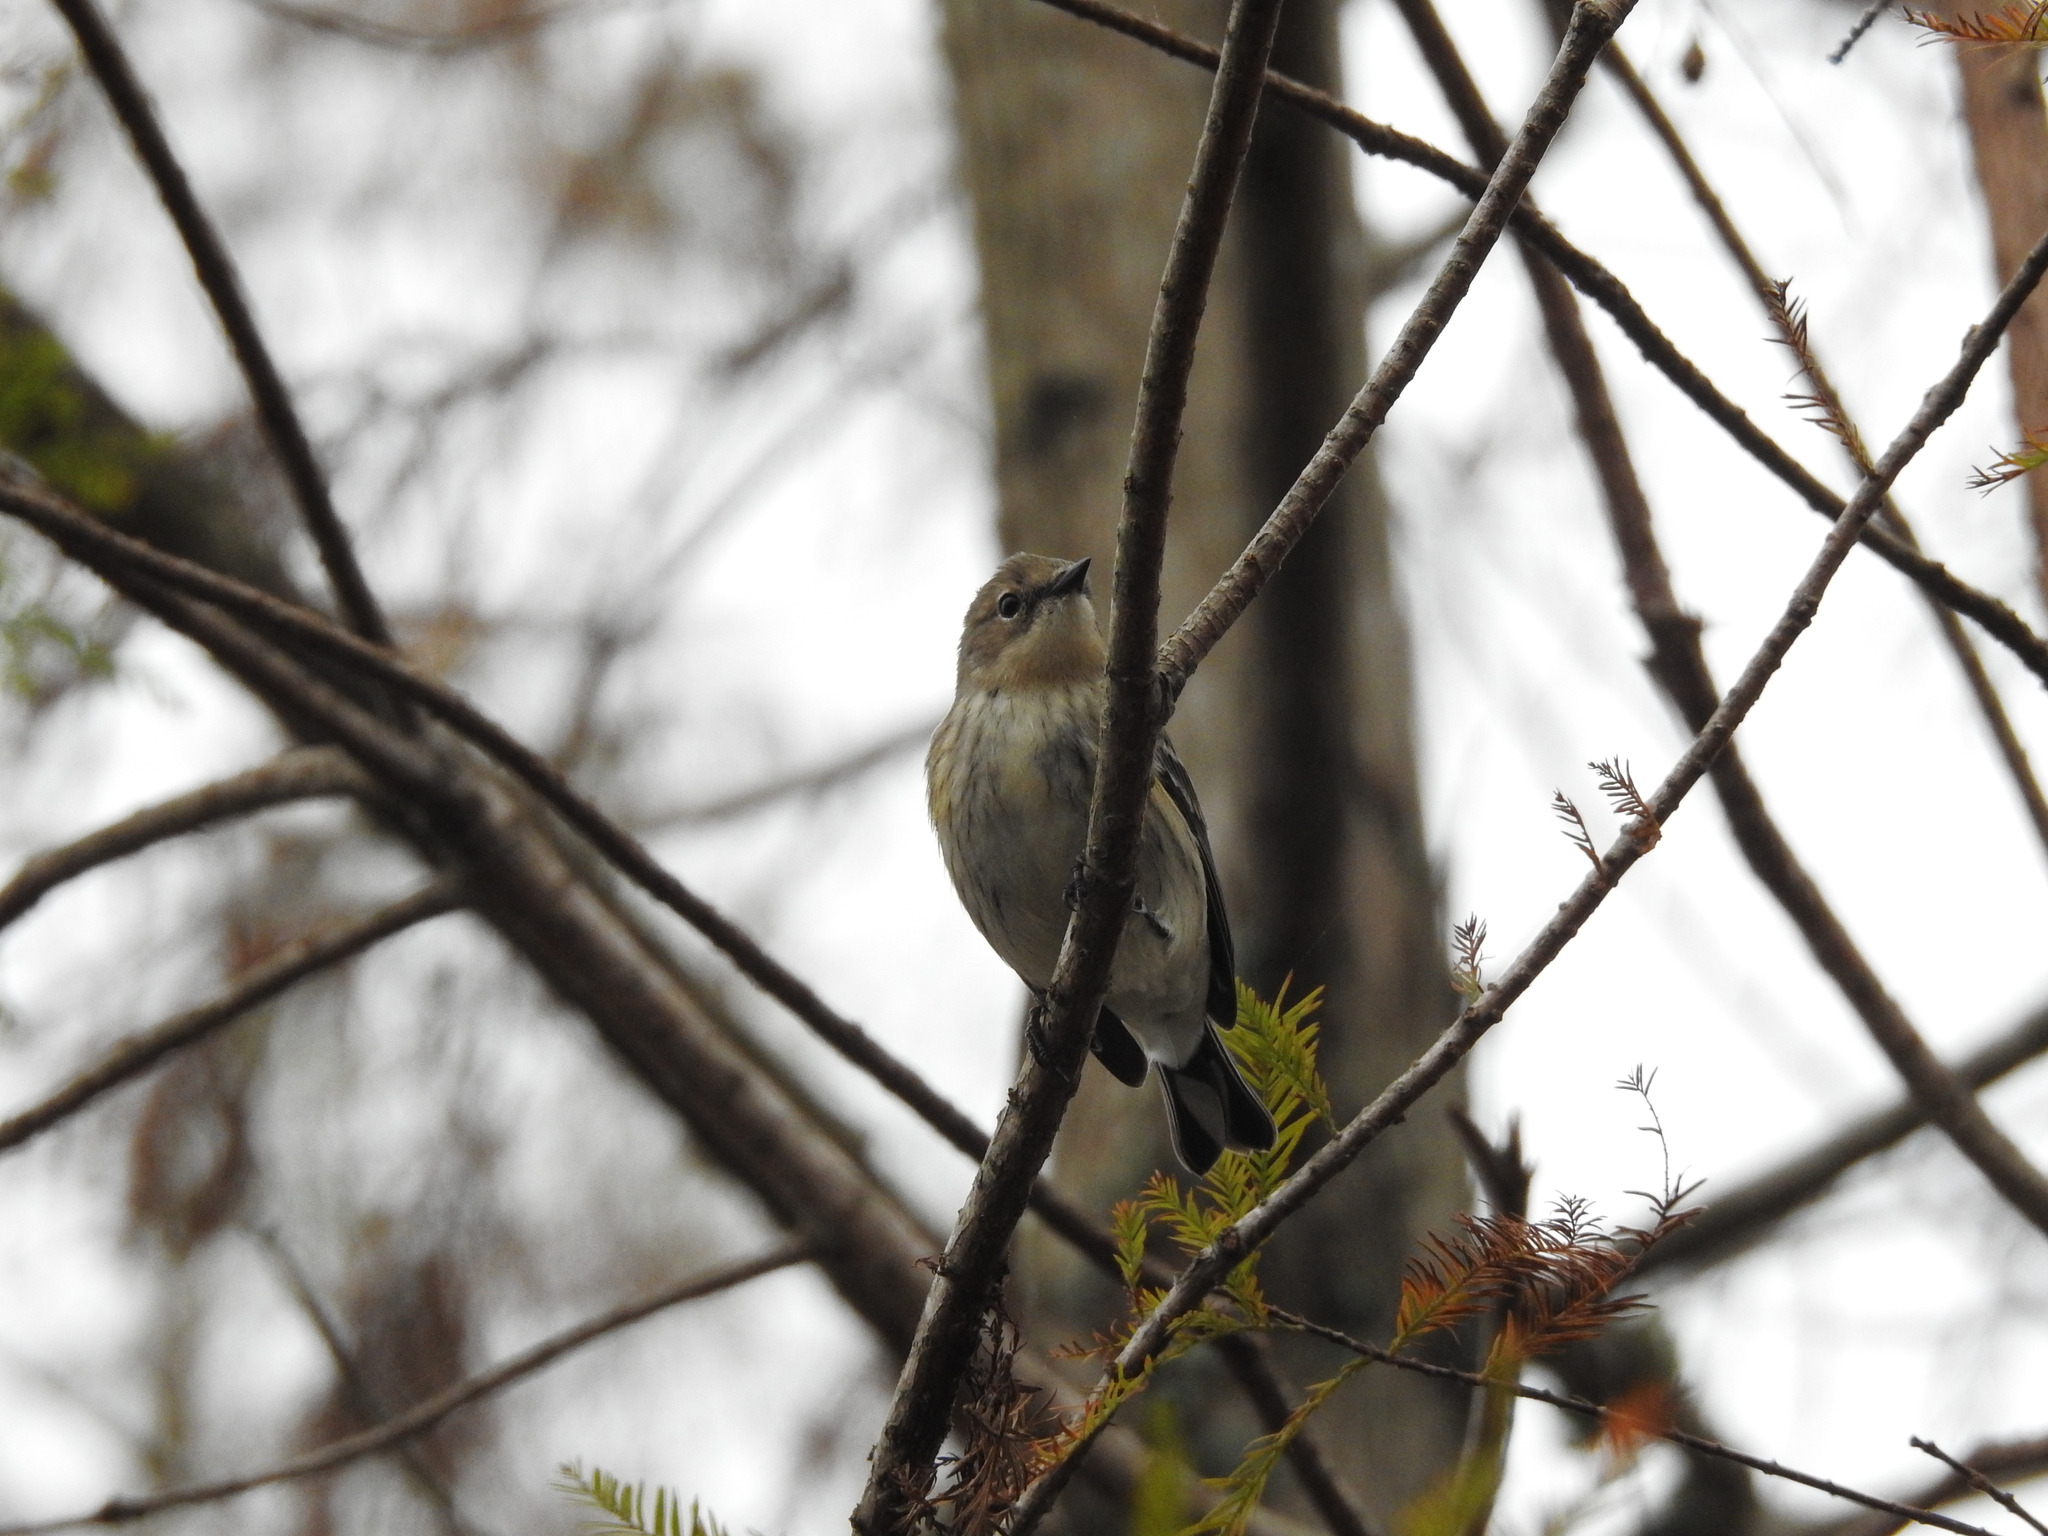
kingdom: Animalia
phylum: Chordata
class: Aves
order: Passeriformes
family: Parulidae
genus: Setophaga
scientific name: Setophaga coronata
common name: Myrtle warbler
